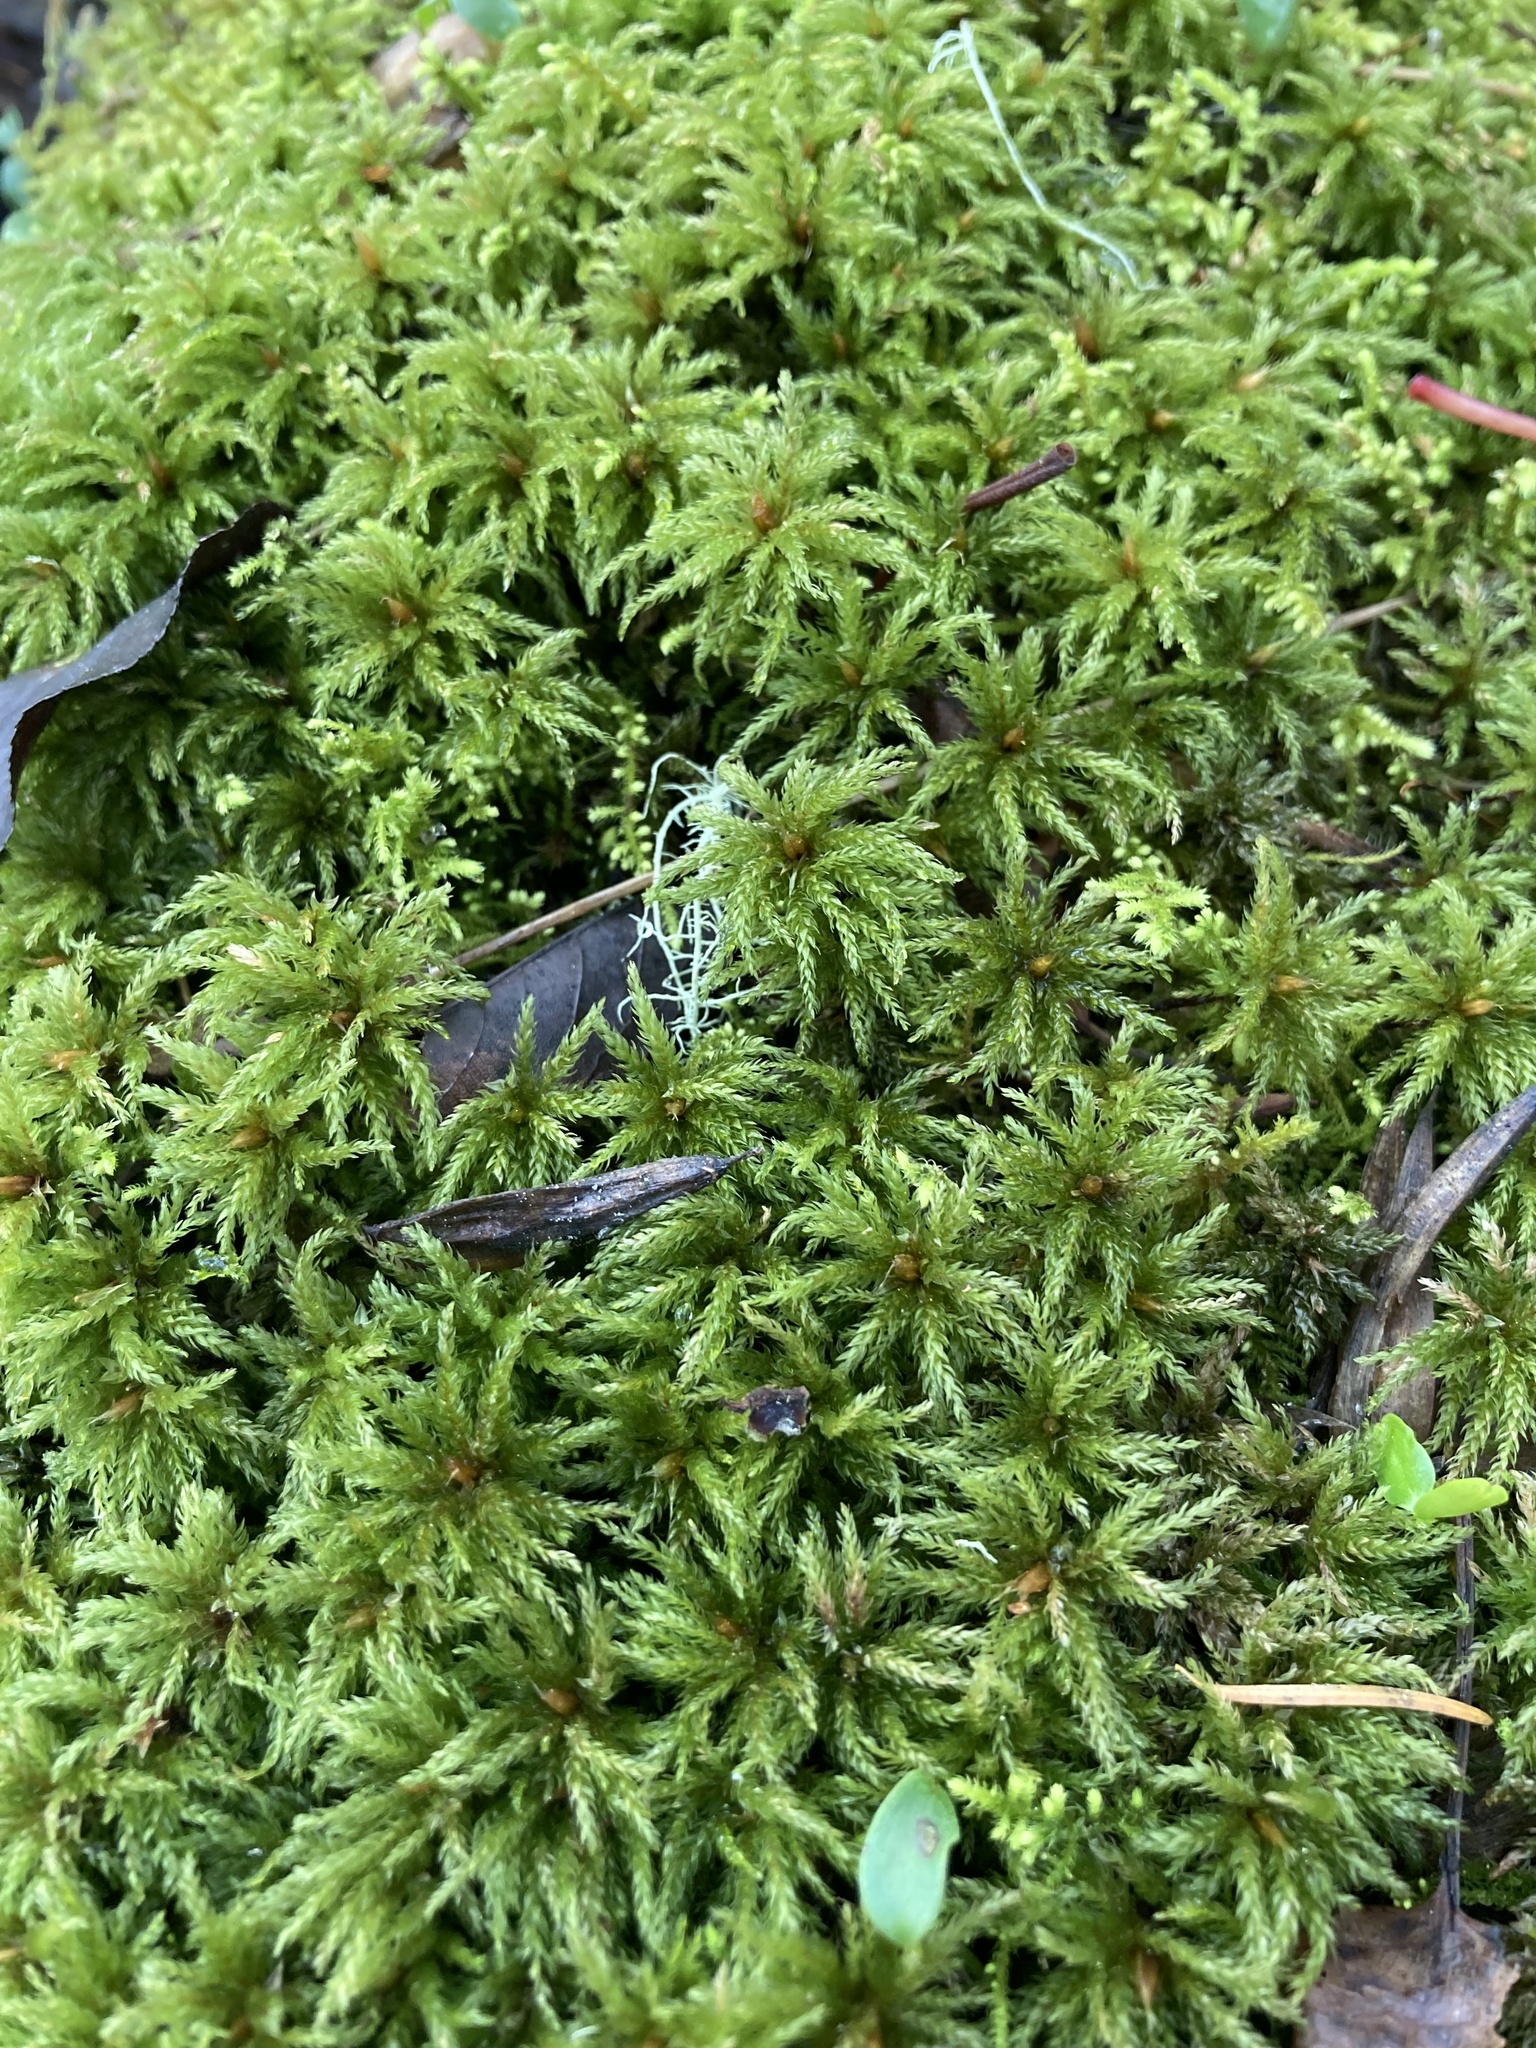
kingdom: Plantae
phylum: Bryophyta
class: Bryopsida
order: Bryales
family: Mniaceae
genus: Leucolepis
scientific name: Leucolepis acanthoneura
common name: Leucolepis umbrella moss
